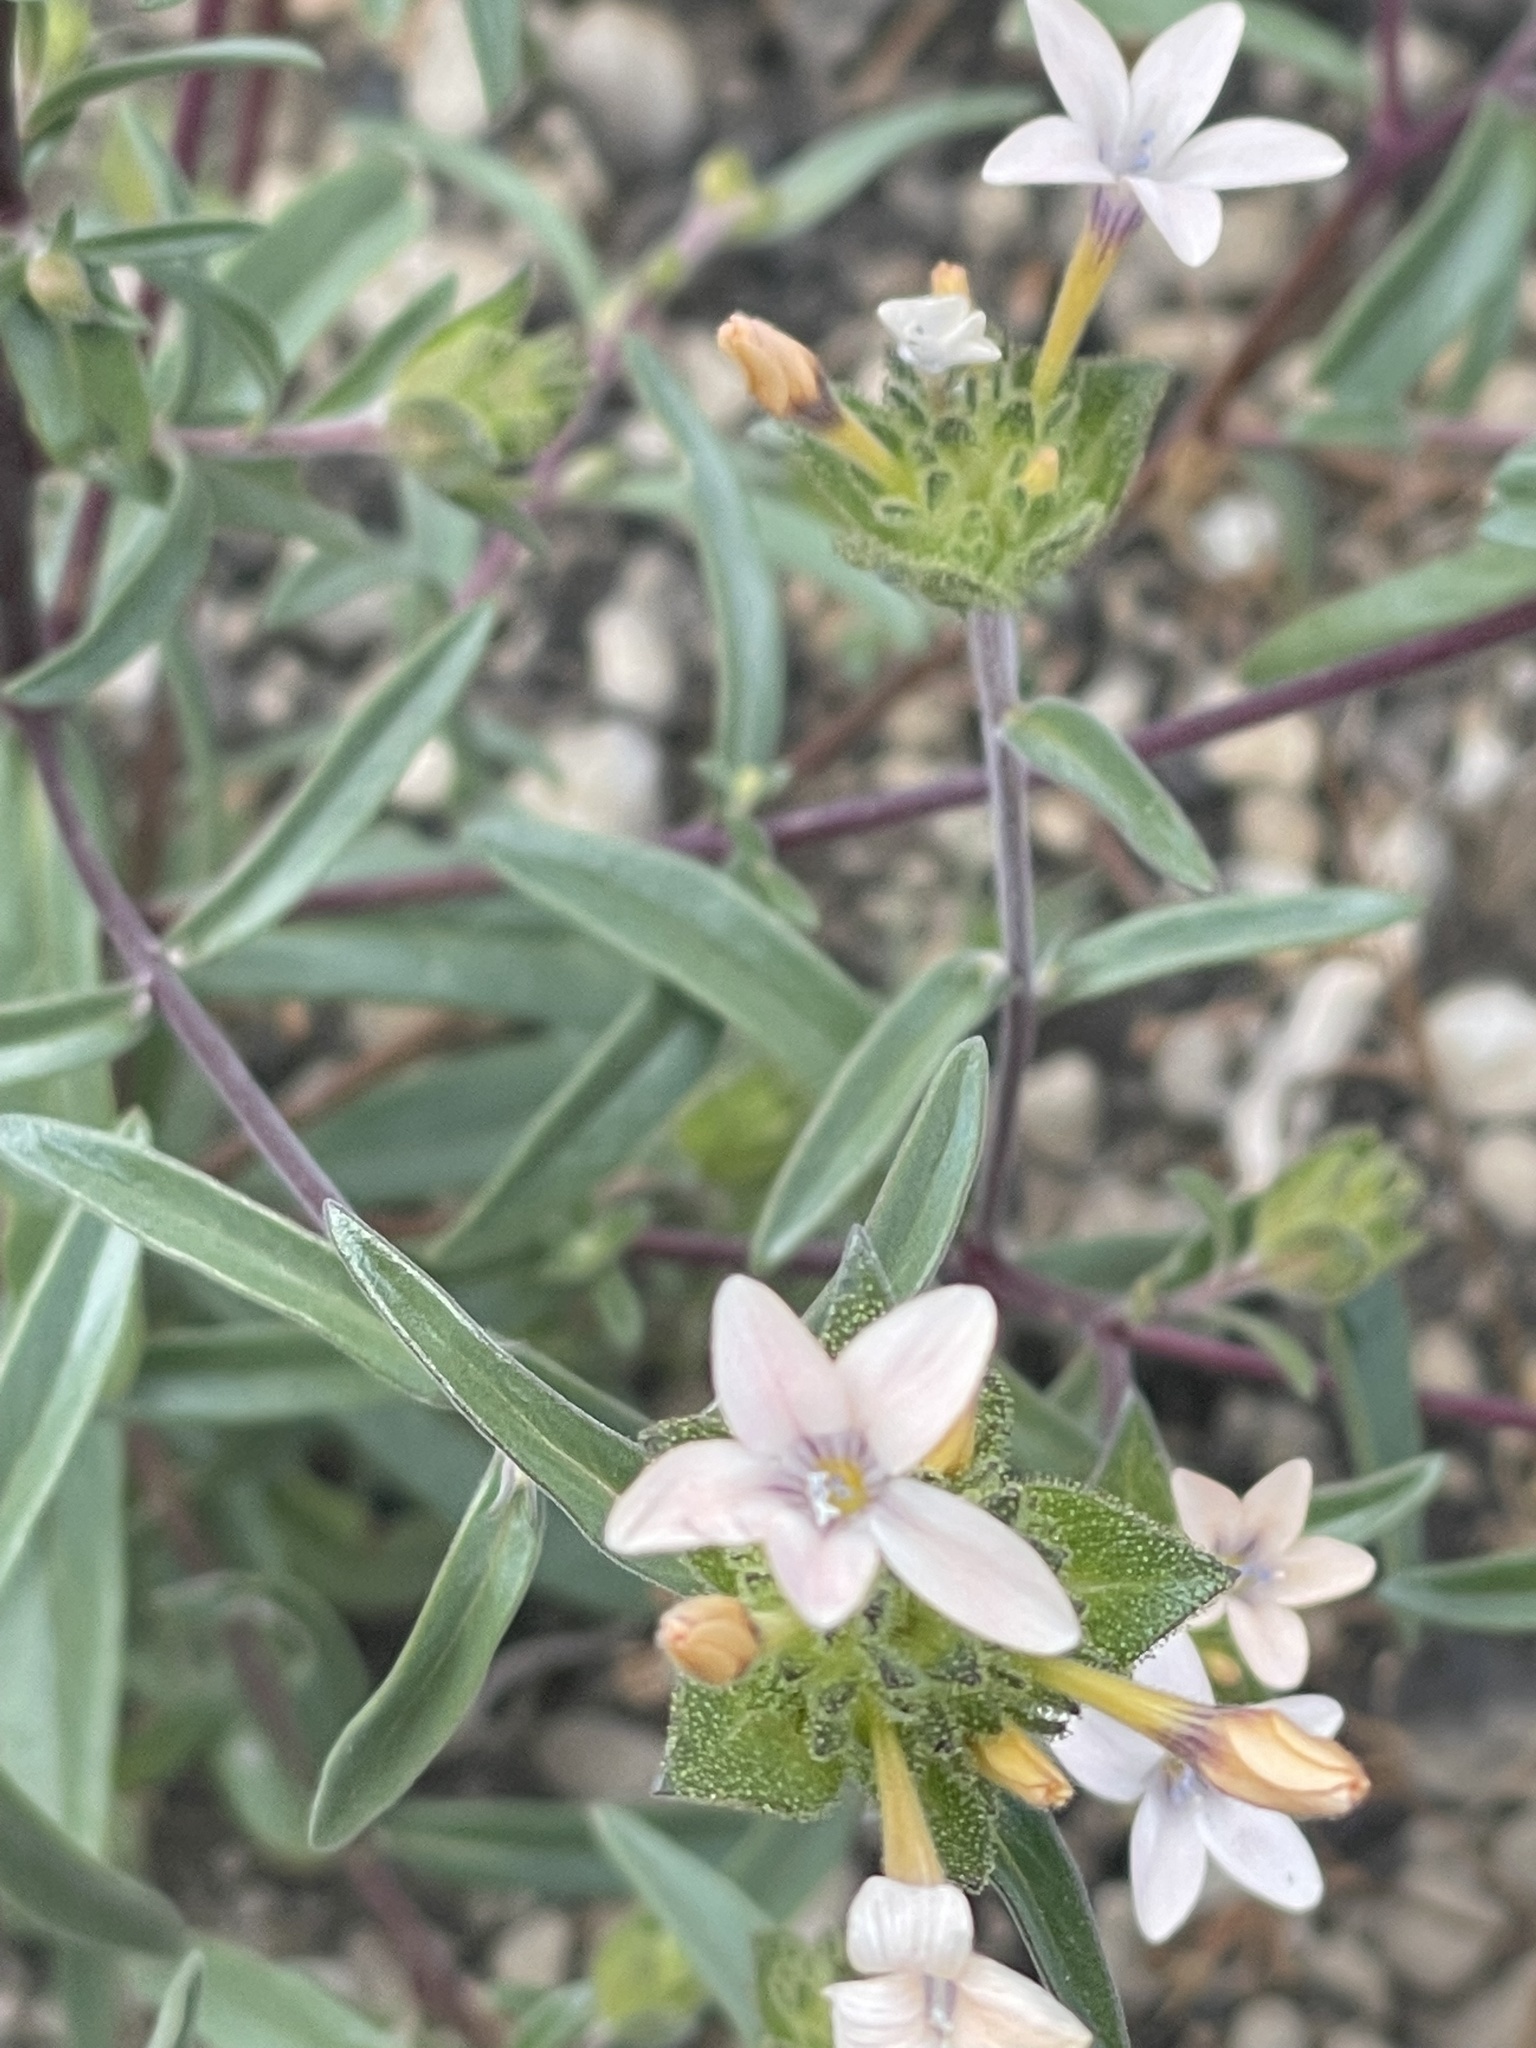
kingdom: Plantae
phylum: Tracheophyta
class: Magnoliopsida
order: Ericales
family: Polemoniaceae
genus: Collomia
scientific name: Collomia grandiflora
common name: California strawflower
